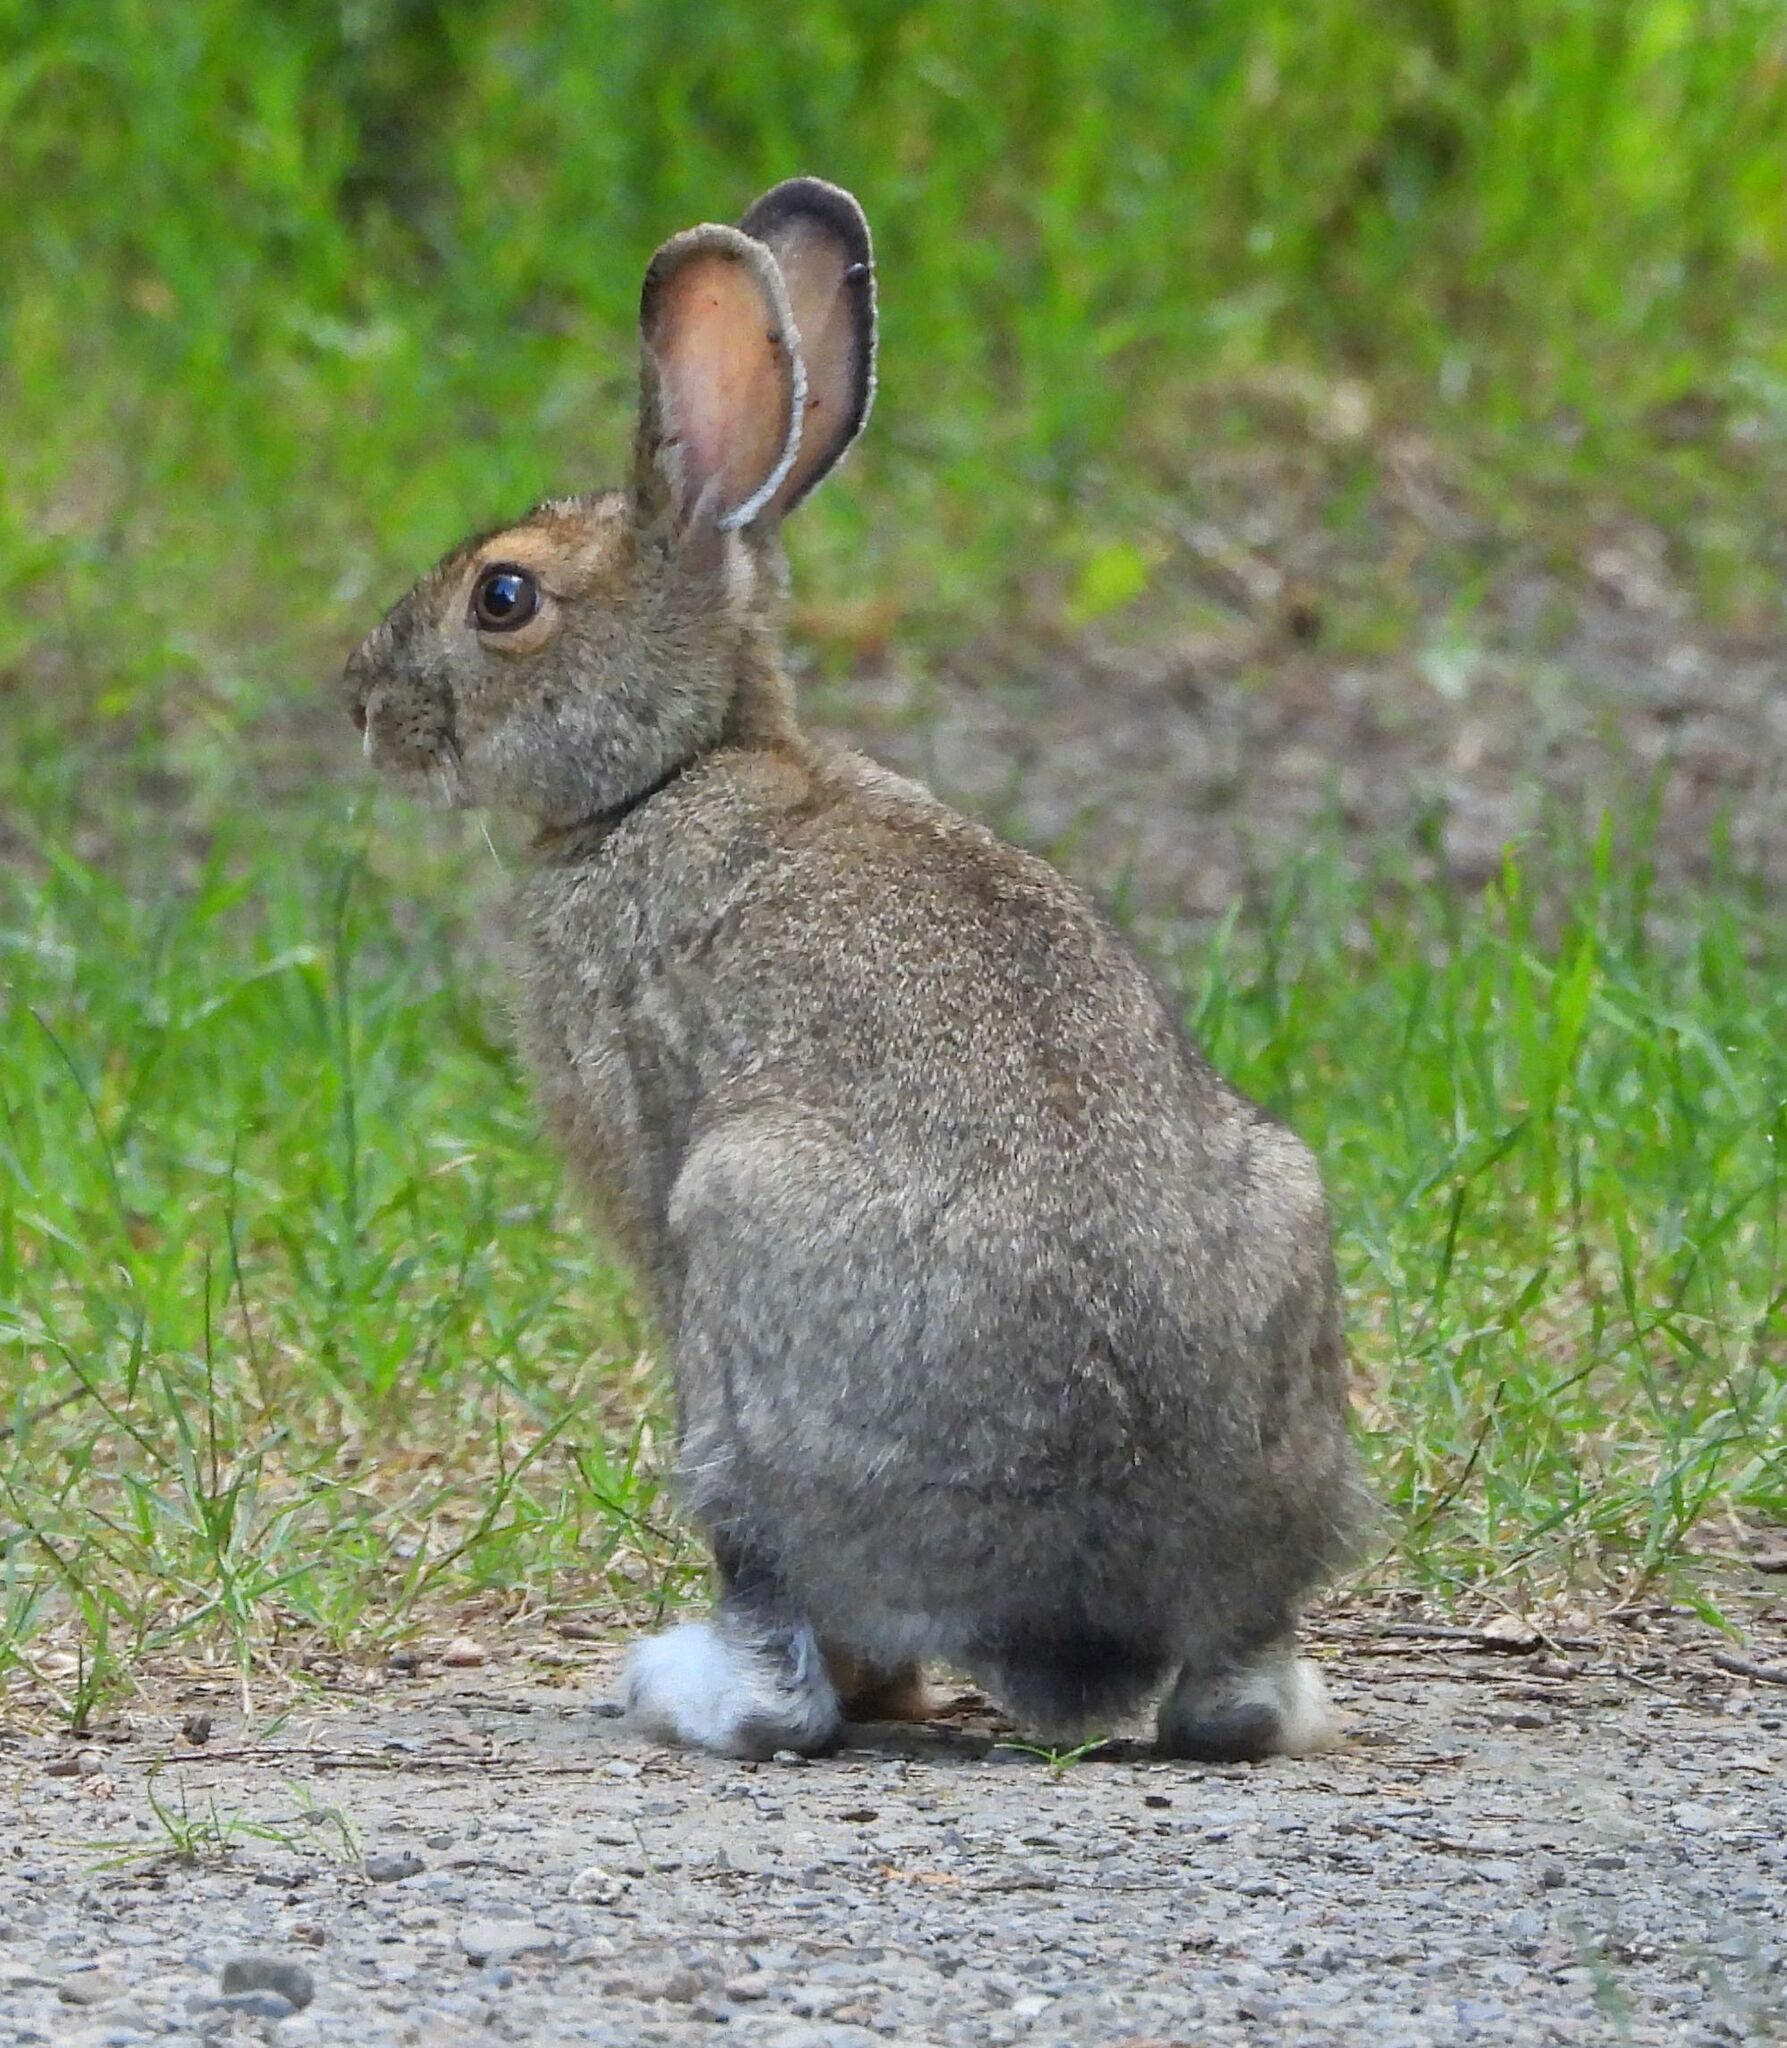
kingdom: Animalia
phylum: Chordata
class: Mammalia
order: Lagomorpha
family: Leporidae
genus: Lepus
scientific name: Lepus americanus
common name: Snowshoe hare
